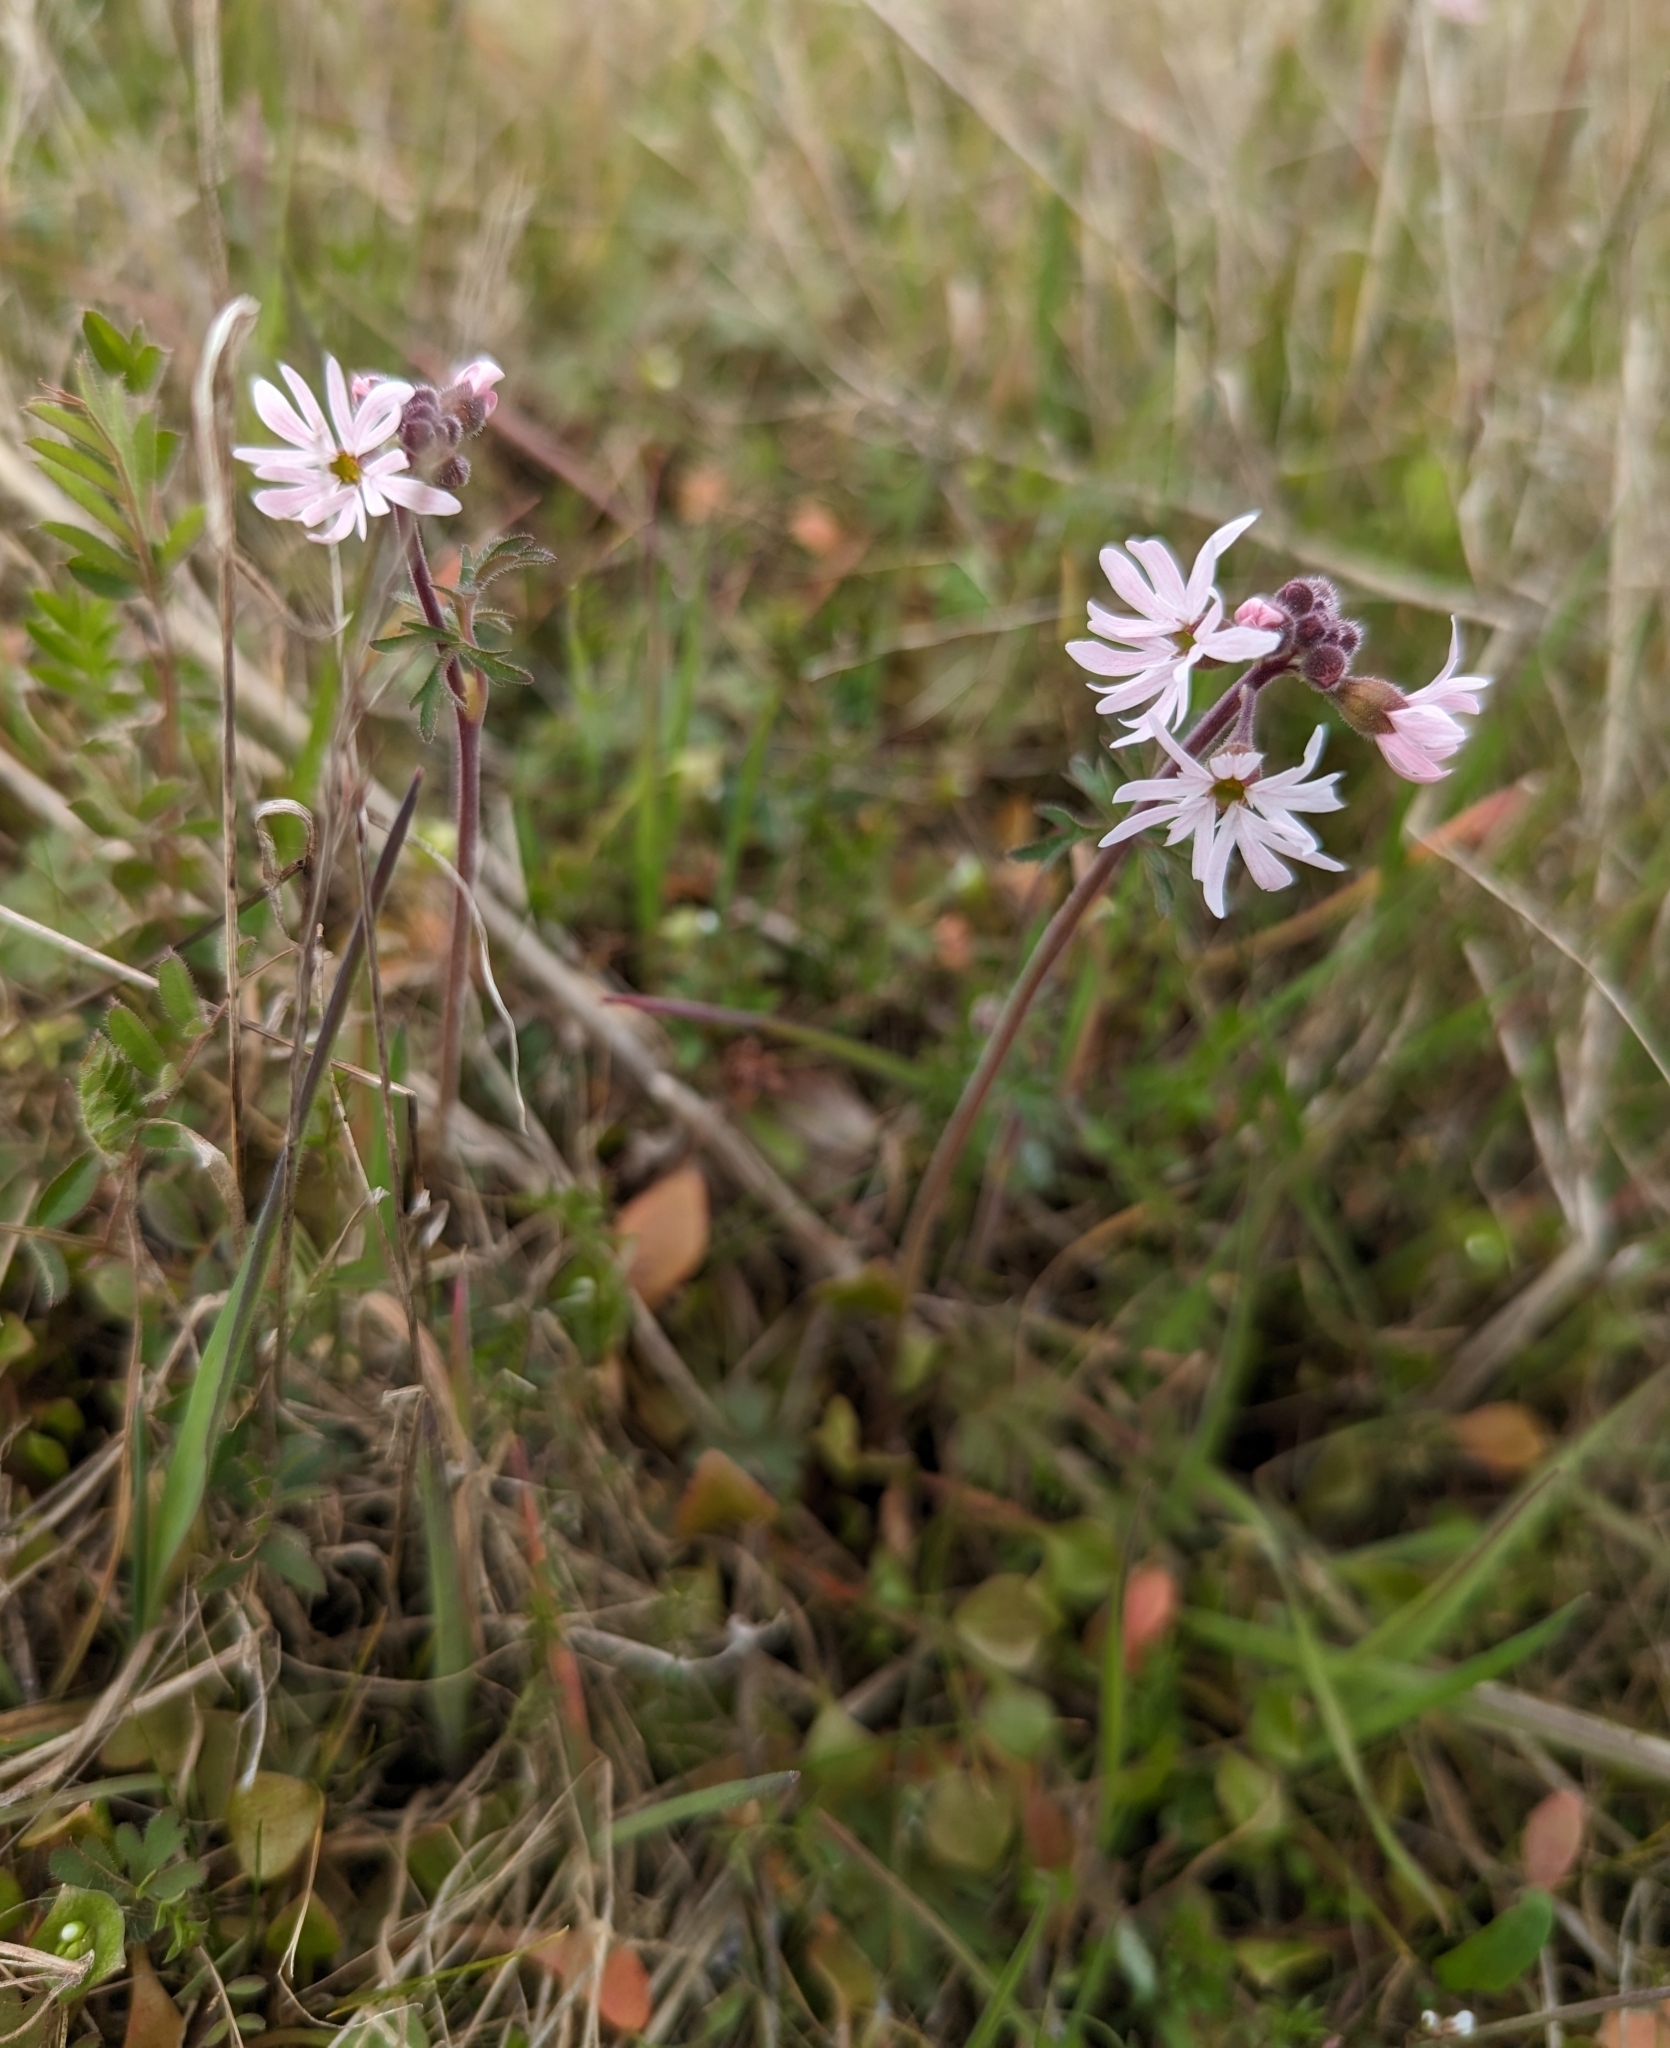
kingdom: Plantae
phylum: Tracheophyta
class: Magnoliopsida
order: Saxifragales
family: Saxifragaceae
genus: Lithophragma
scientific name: Lithophragma parviflorum
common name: Small-flowered fringe-cup
